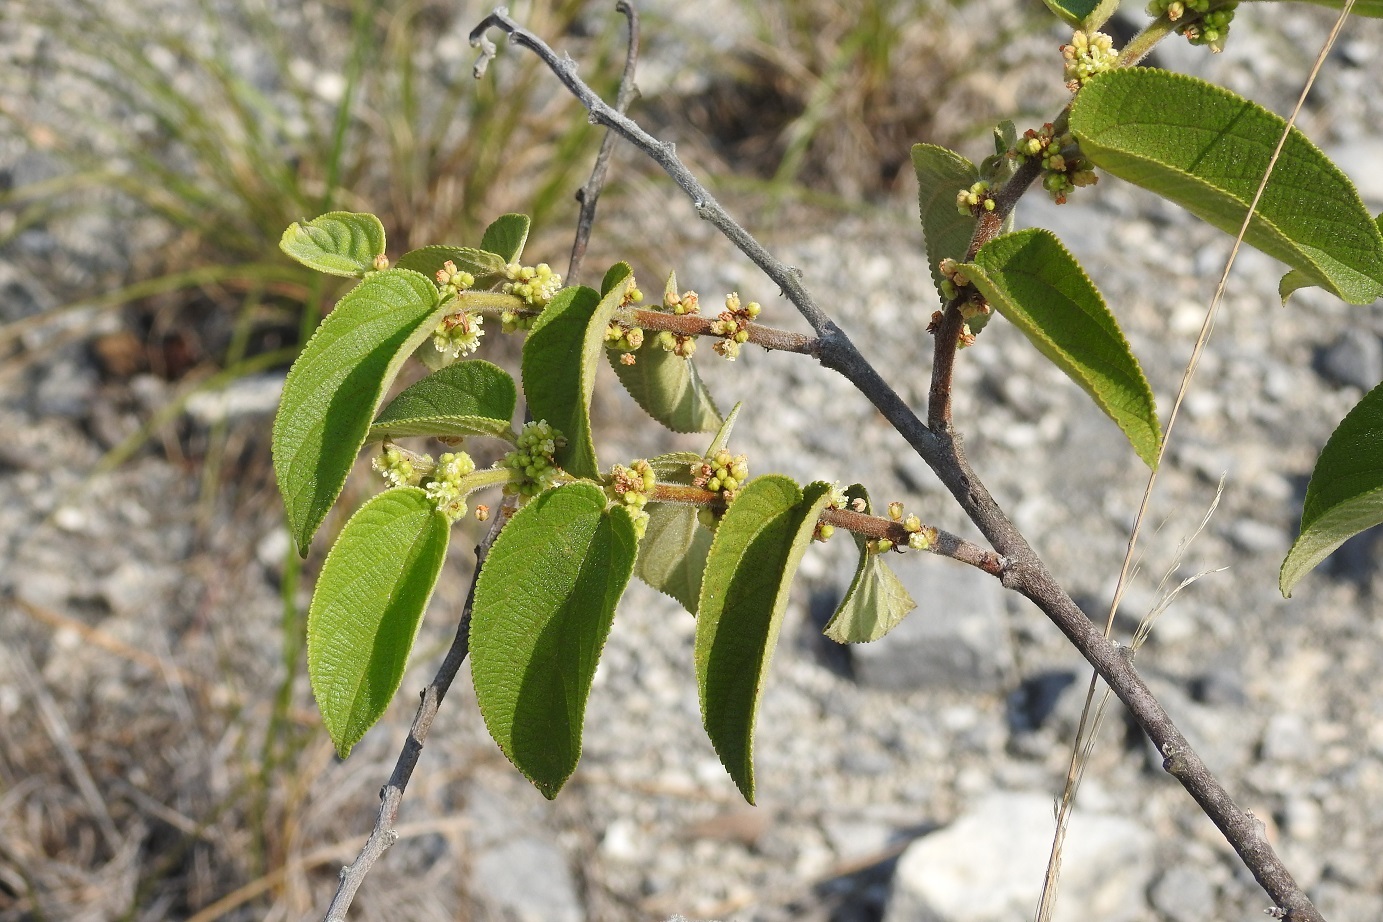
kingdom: Plantae
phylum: Tracheophyta
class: Magnoliopsida
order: Rosales
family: Cannabaceae
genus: Trema
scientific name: Trema micranthum
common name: Jamaican nettletree
